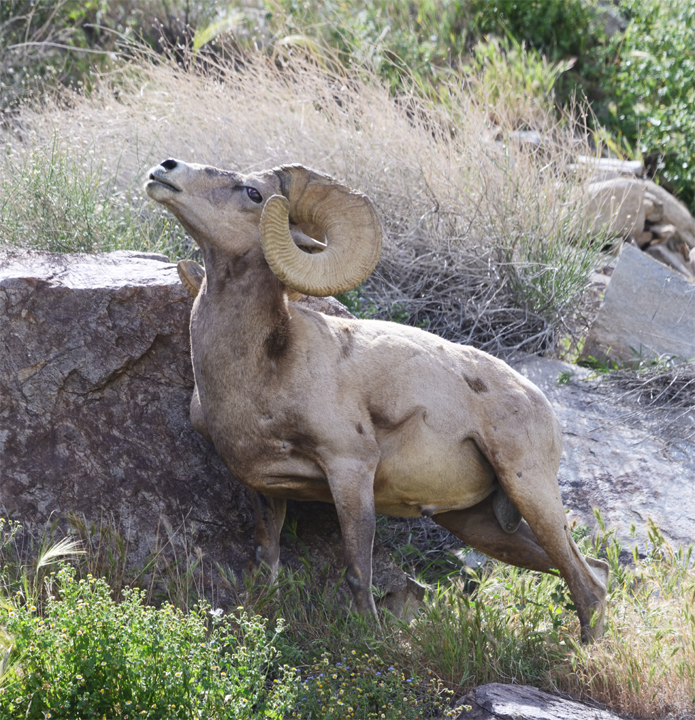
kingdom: Animalia
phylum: Chordata
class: Mammalia
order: Artiodactyla
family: Bovidae
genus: Ovis
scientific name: Ovis canadensis
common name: Bighorn sheep
